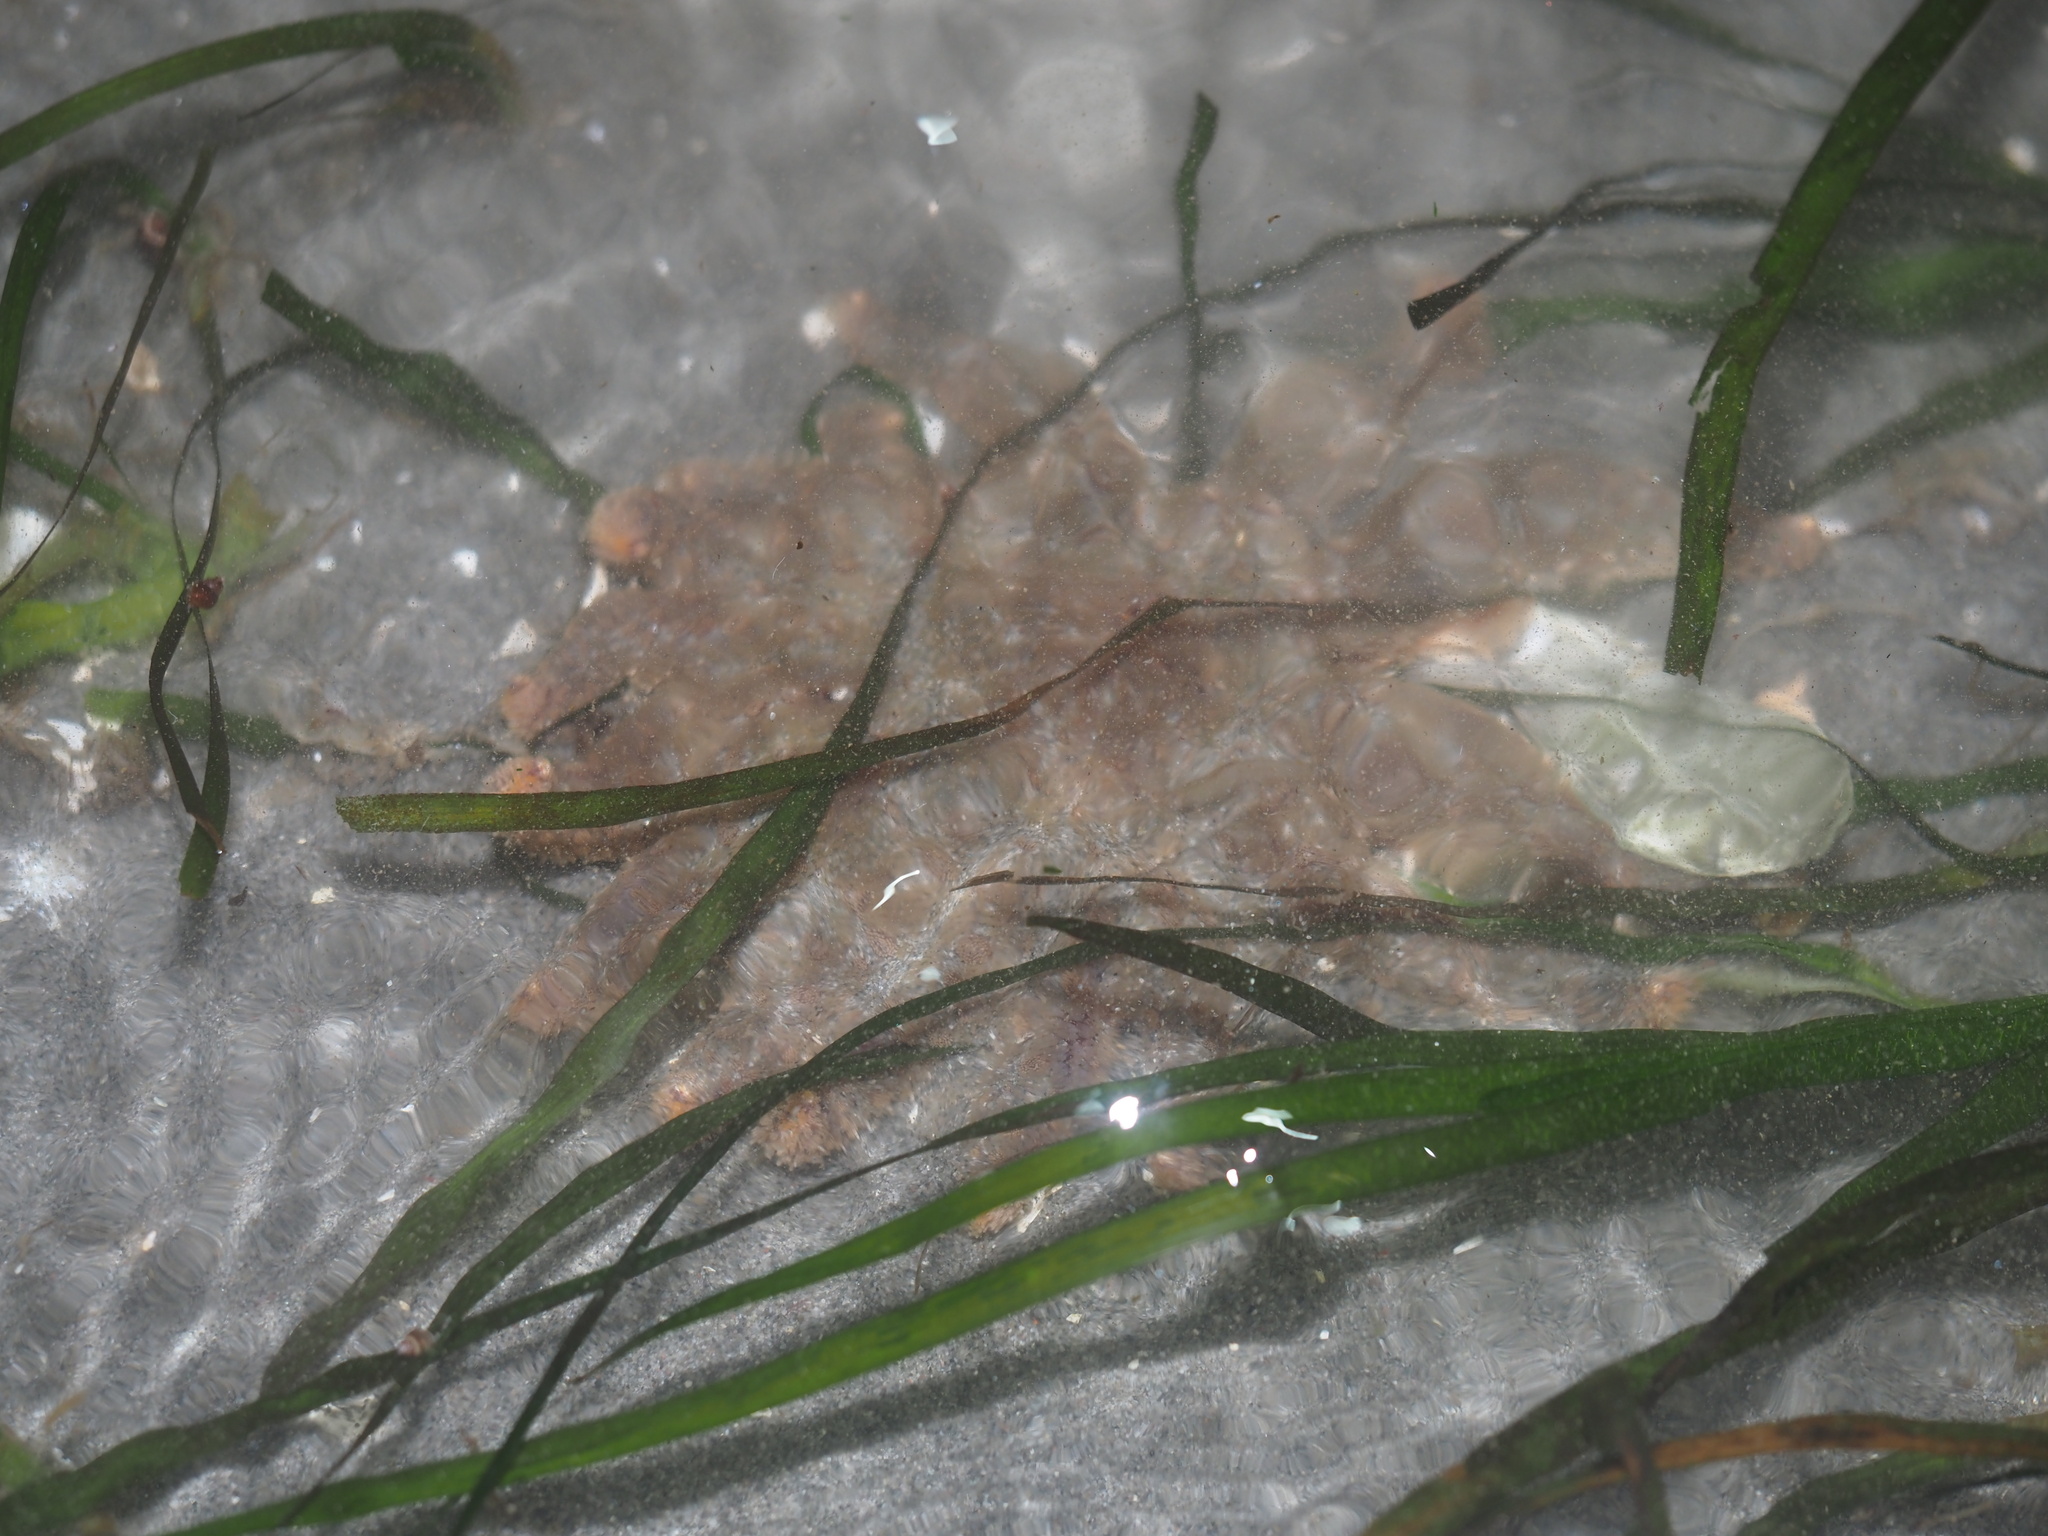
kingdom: Animalia
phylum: Echinodermata
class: Asteroidea
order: Forcipulatida
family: Asteriidae
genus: Pycnopodia
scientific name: Pycnopodia helianthoides
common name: Rag mop
